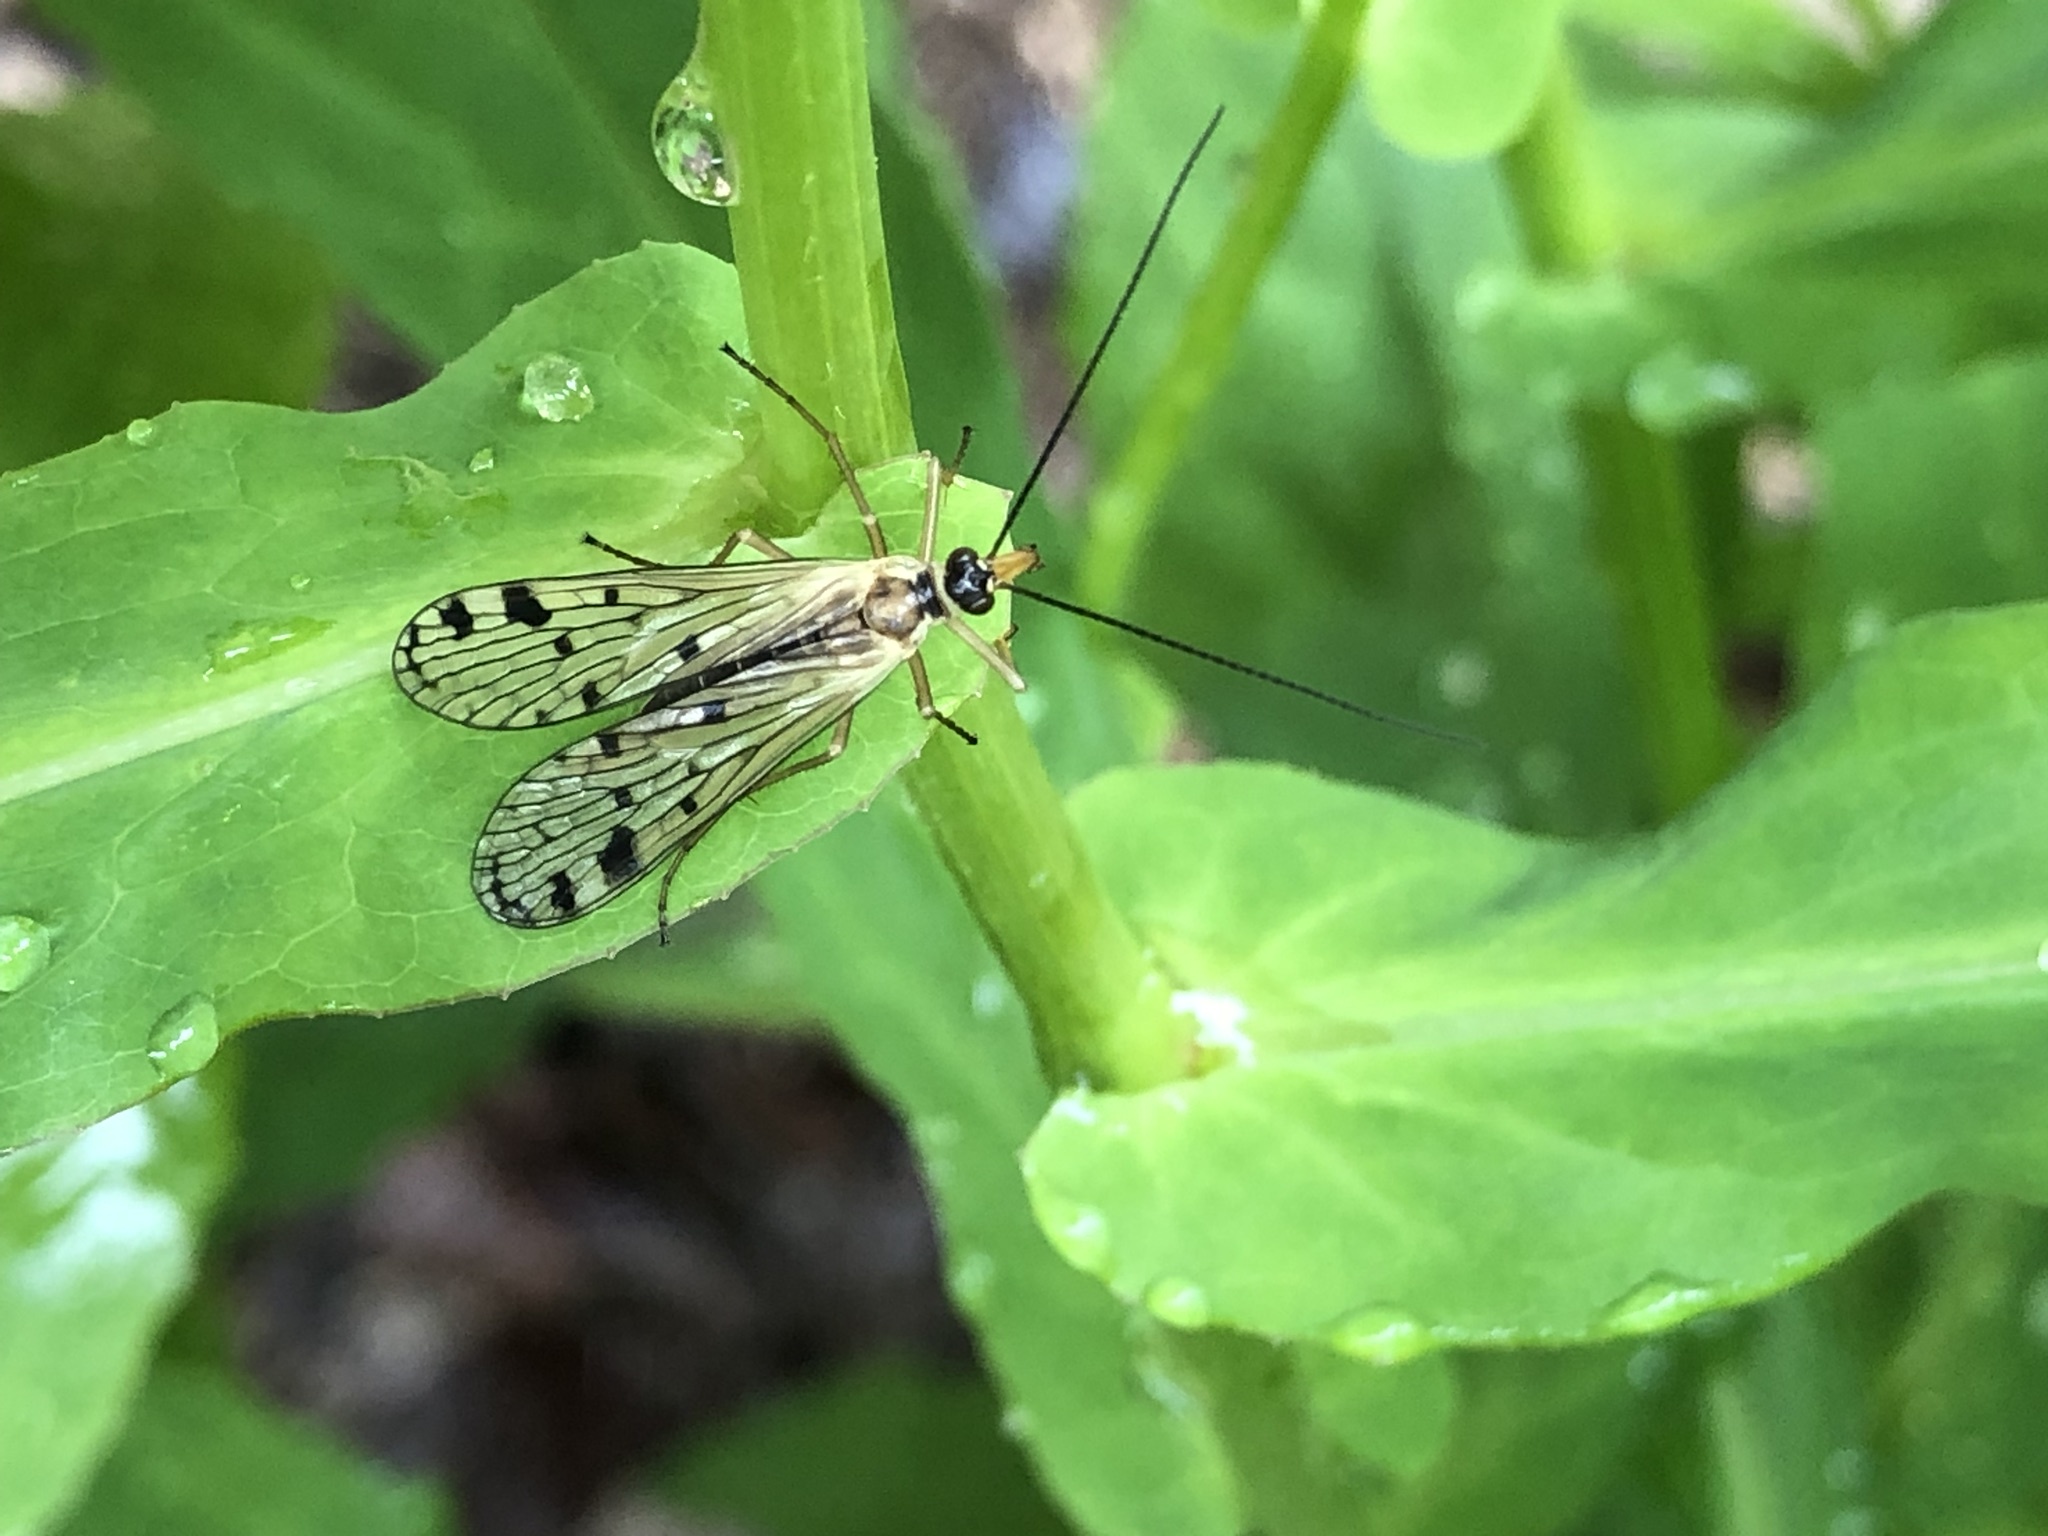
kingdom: Animalia
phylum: Arthropoda
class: Insecta
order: Mecoptera
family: Panorpidae
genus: Panorpa
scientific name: Panorpa alpina
